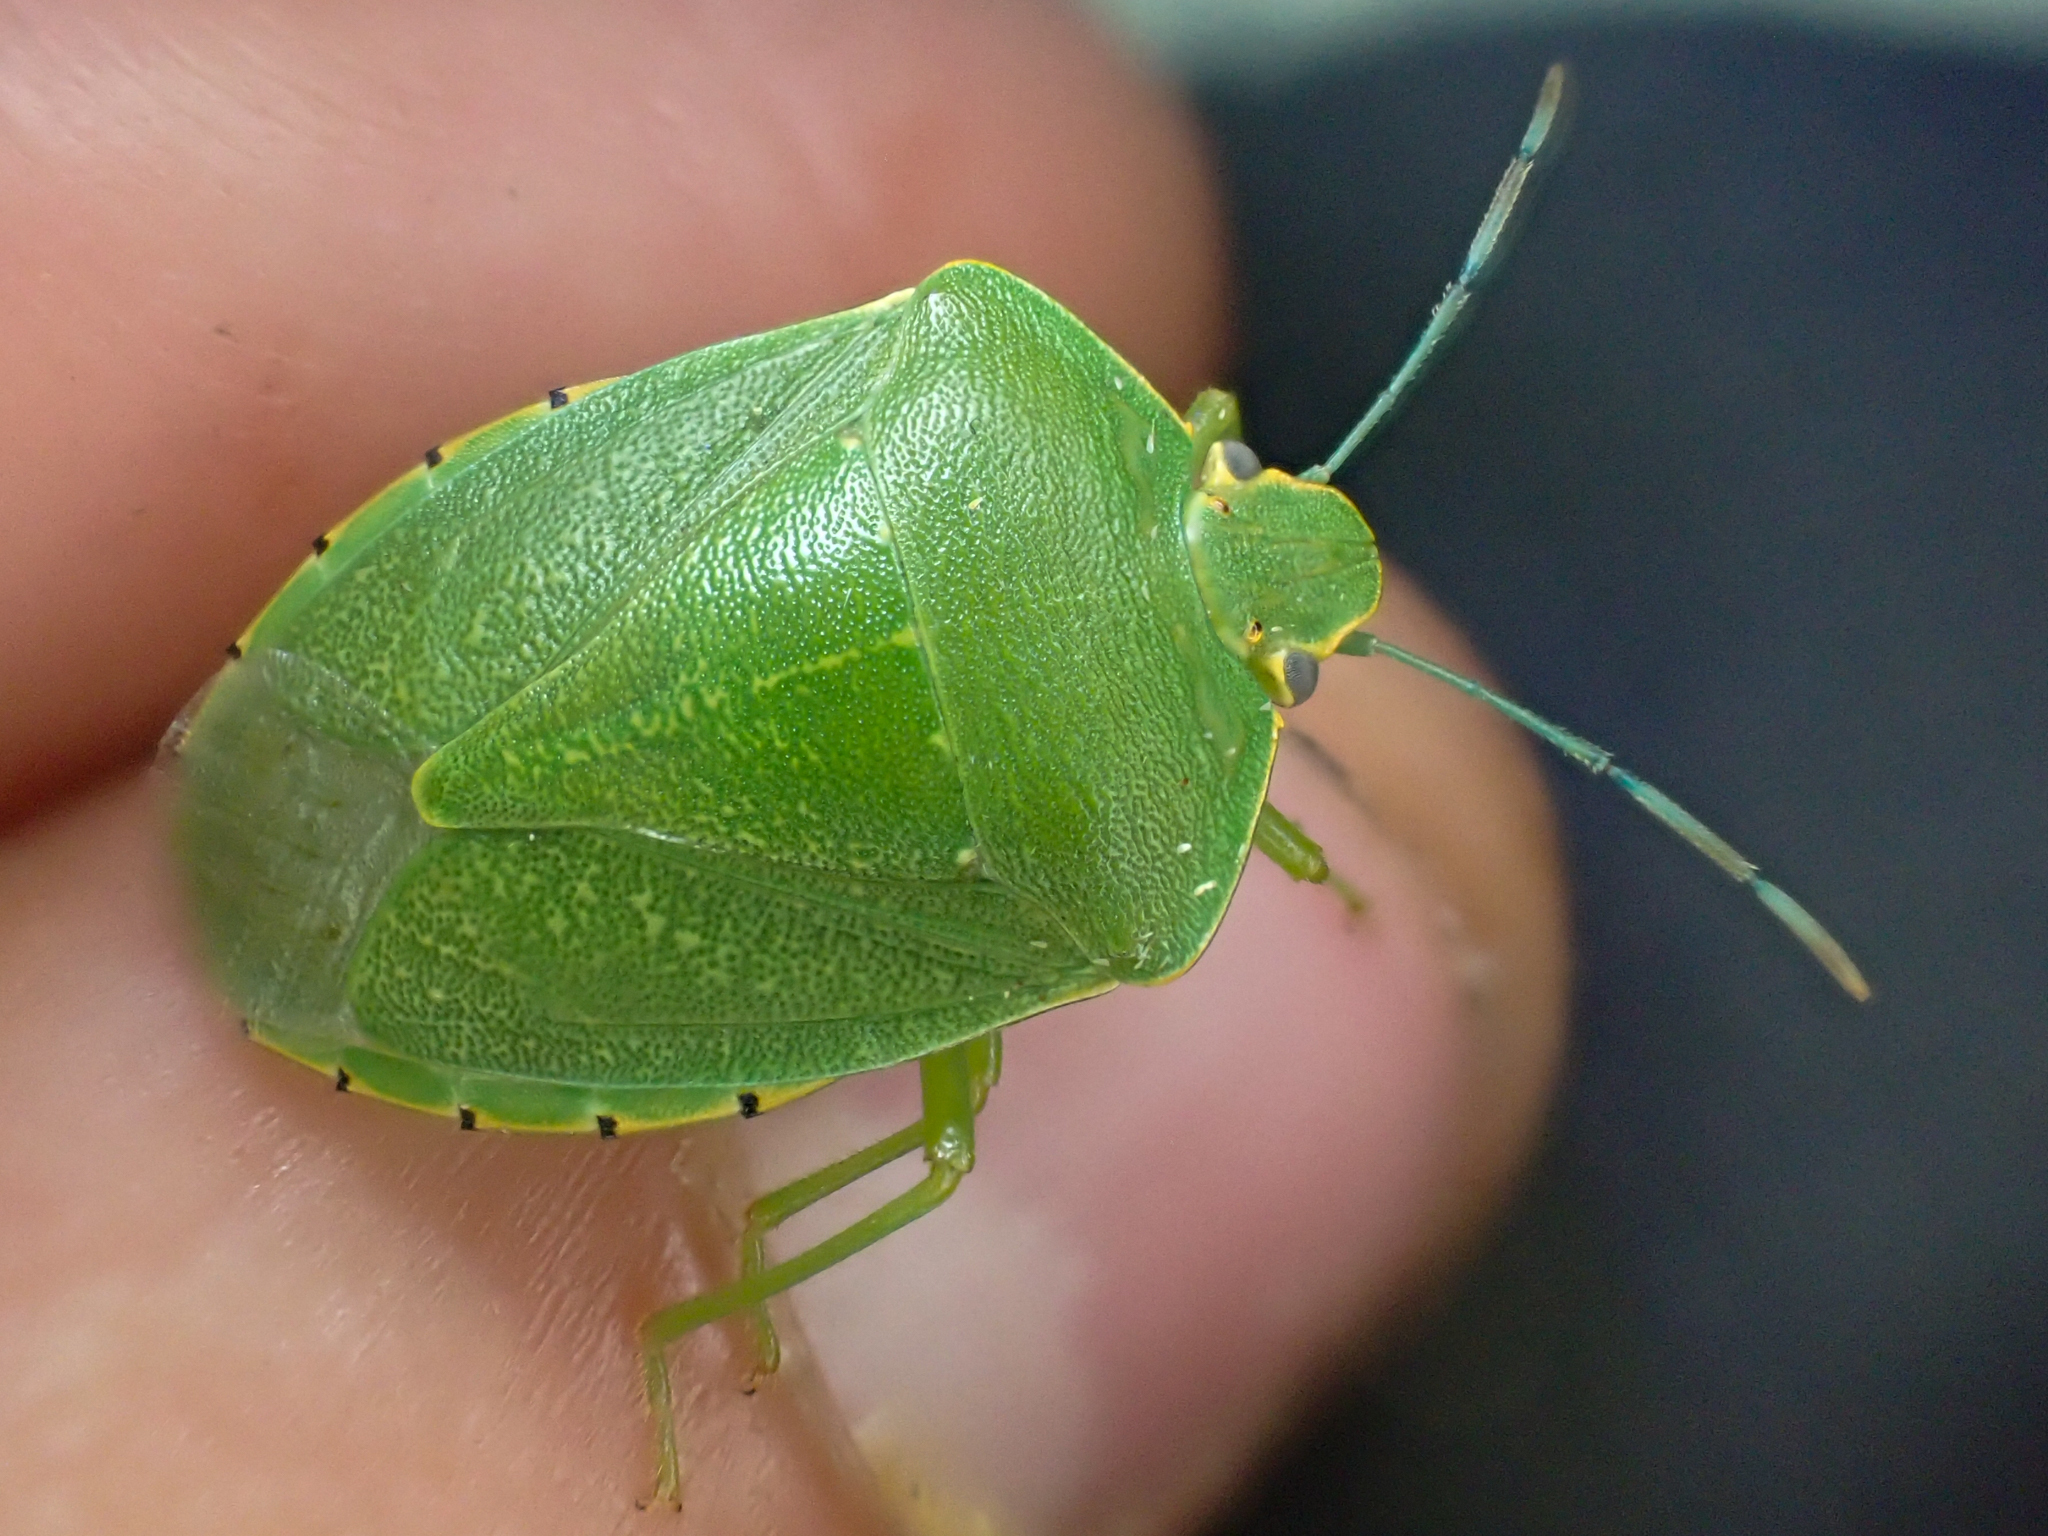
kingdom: Animalia
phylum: Arthropoda
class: Insecta
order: Hemiptera
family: Pentatomidae
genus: Chinavia
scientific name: Chinavia hilaris
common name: Green stink bug
